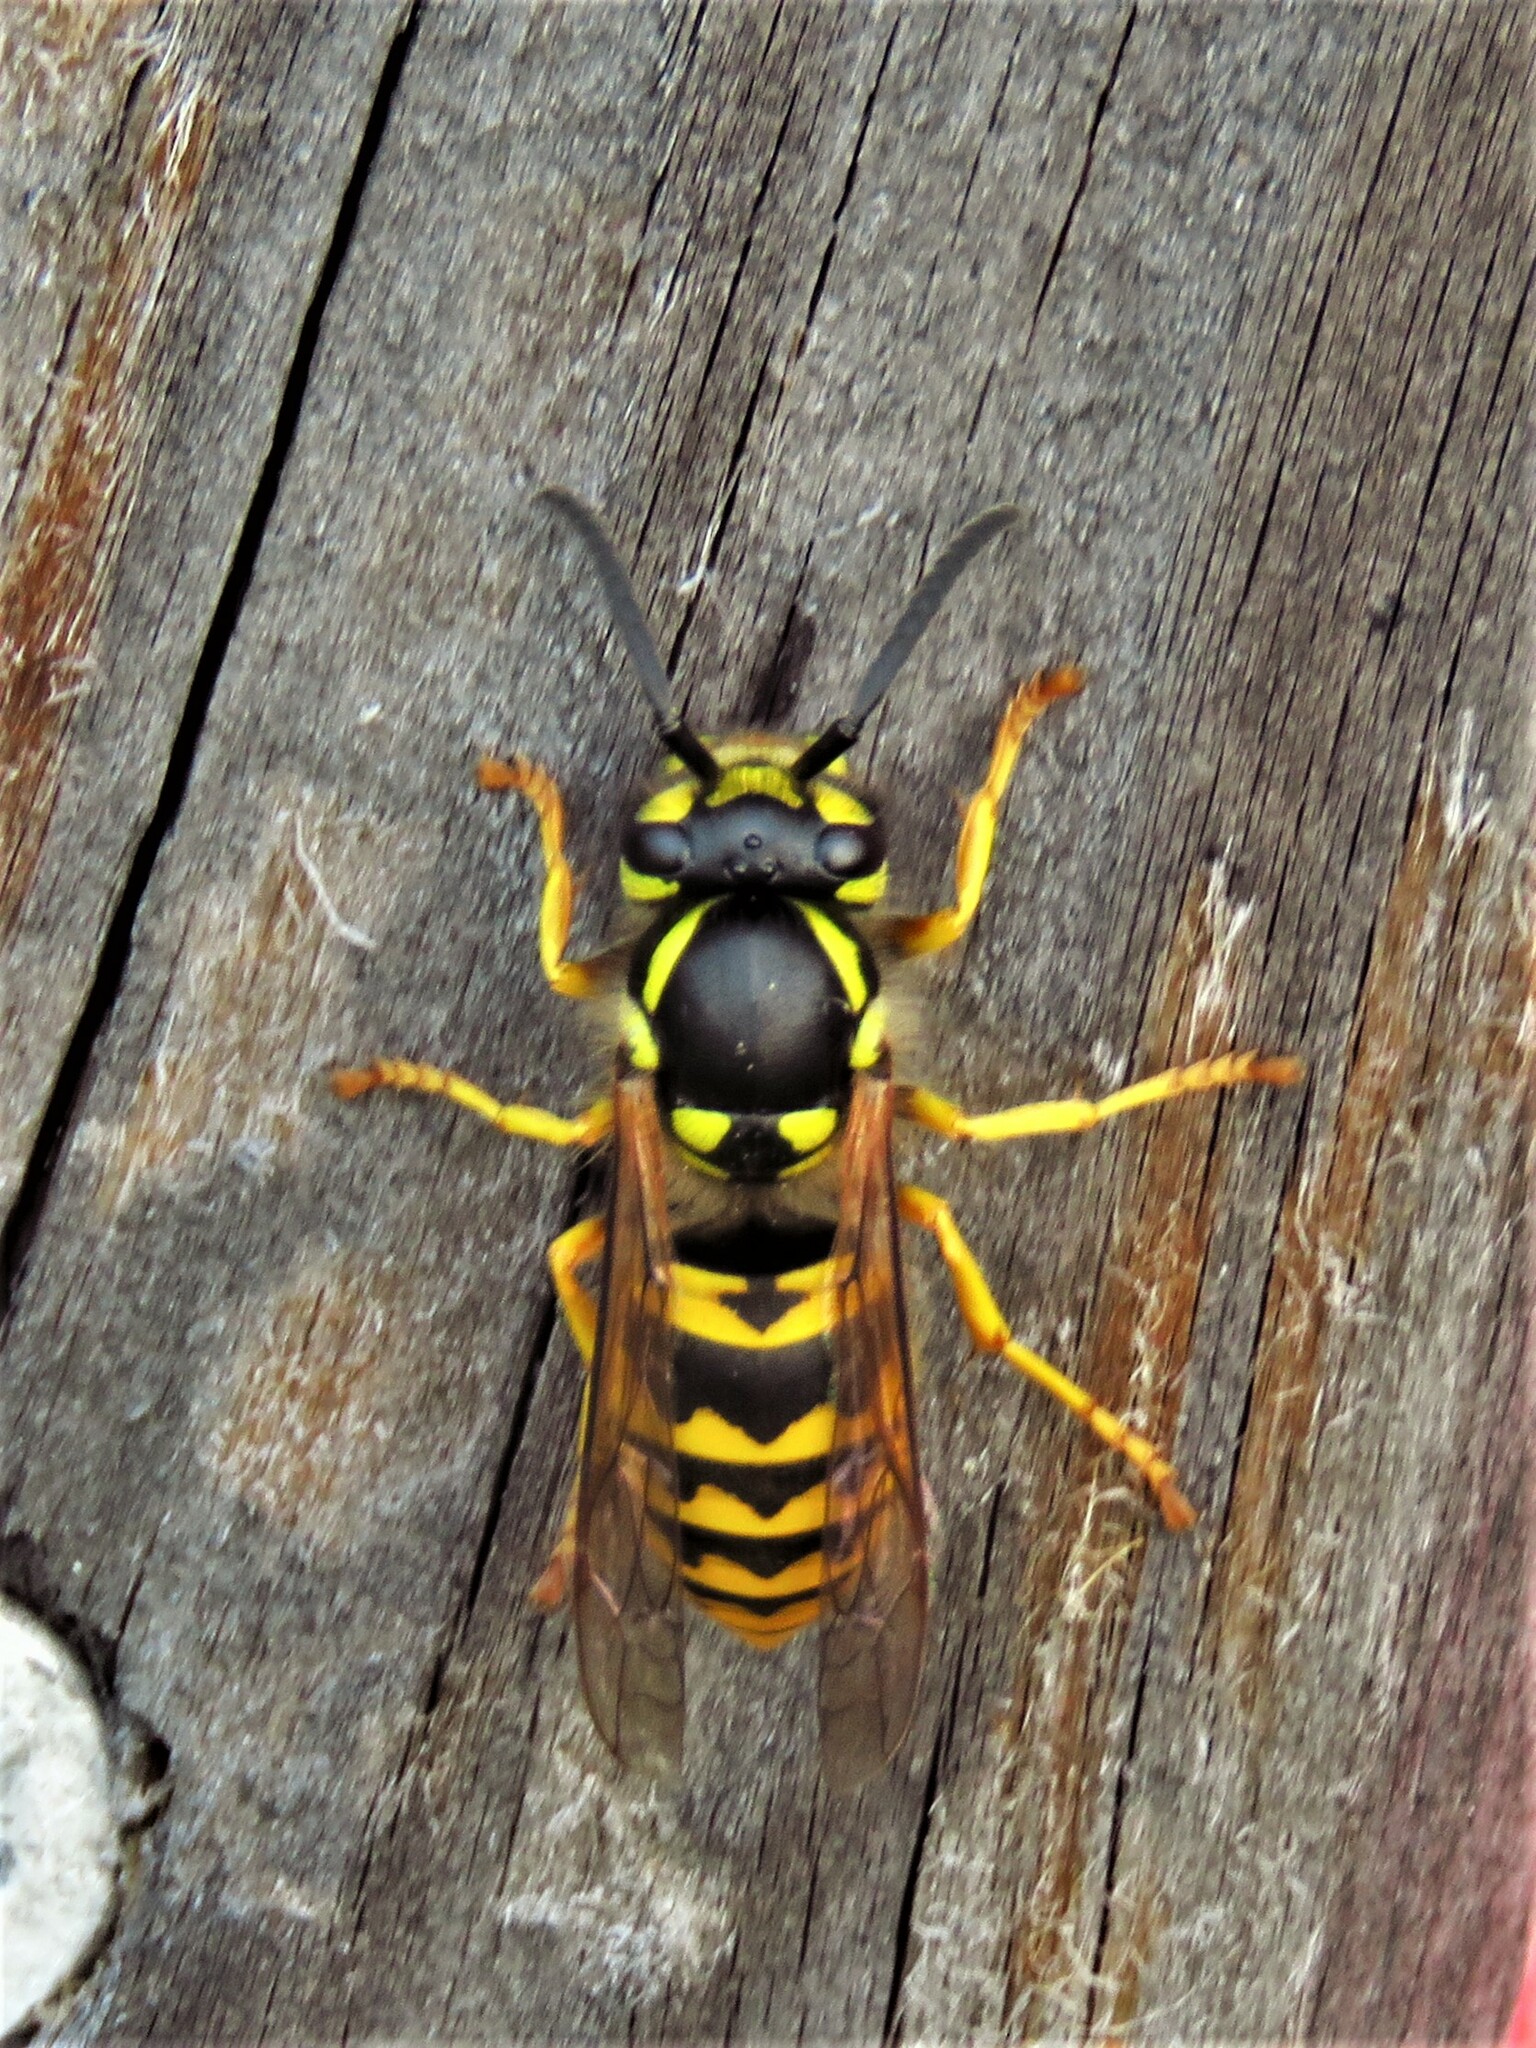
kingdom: Animalia
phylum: Arthropoda
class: Insecta
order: Hymenoptera
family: Vespidae
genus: Vespula
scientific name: Vespula germanica
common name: German wasp
